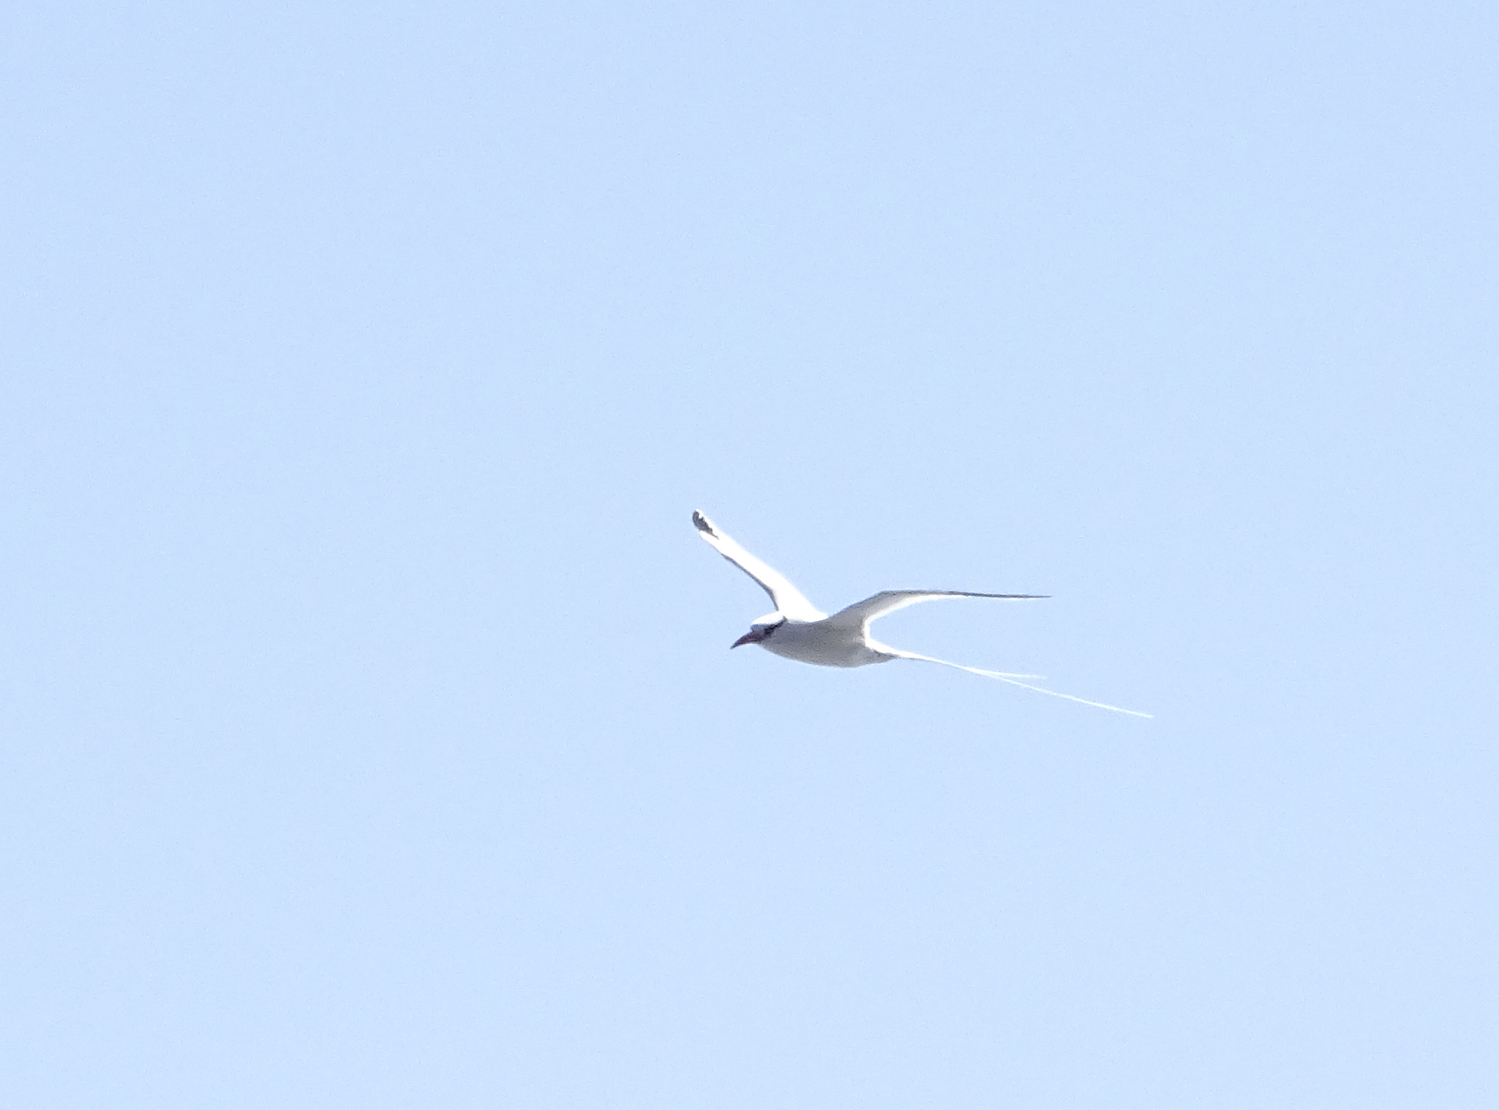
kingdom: Animalia
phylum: Chordata
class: Aves
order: Phaethontiformes
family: Phaethontidae
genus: Phaethon
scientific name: Phaethon aethereus
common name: Red-billed tropicbird
